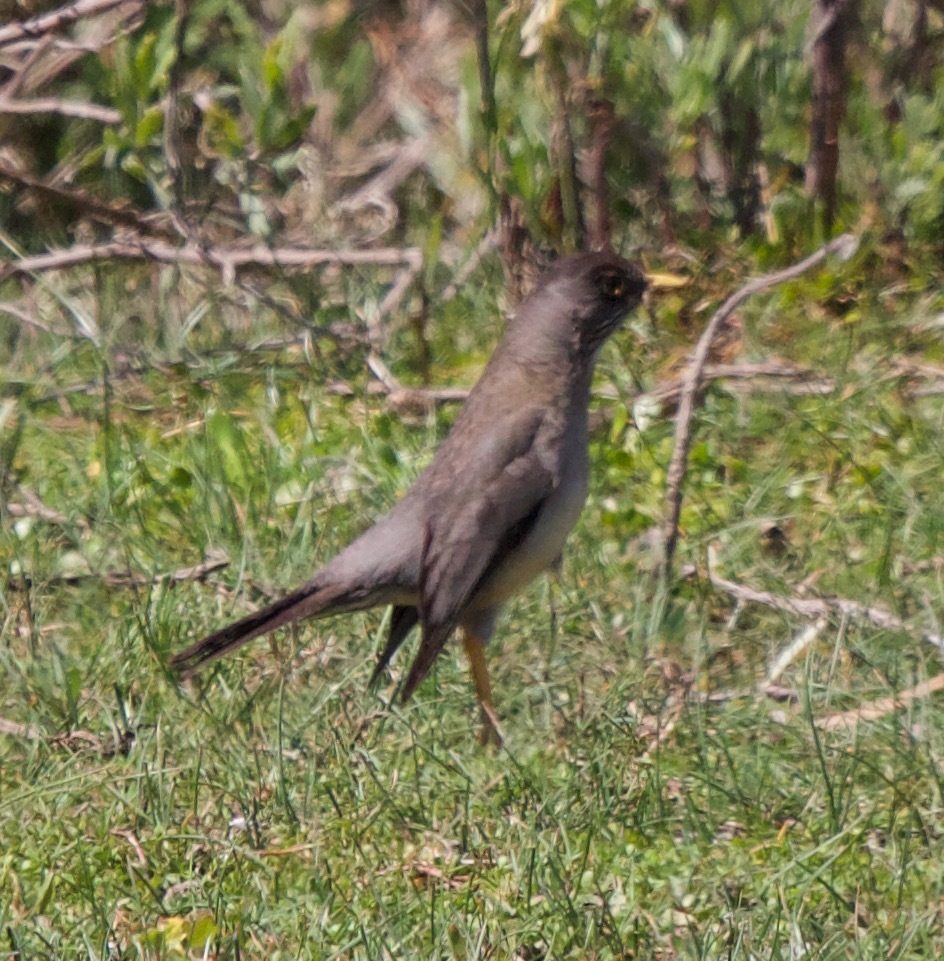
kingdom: Animalia
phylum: Chordata
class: Aves
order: Passeriformes
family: Turdidae
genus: Turdus
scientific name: Turdus falcklandii
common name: Austral thrush
